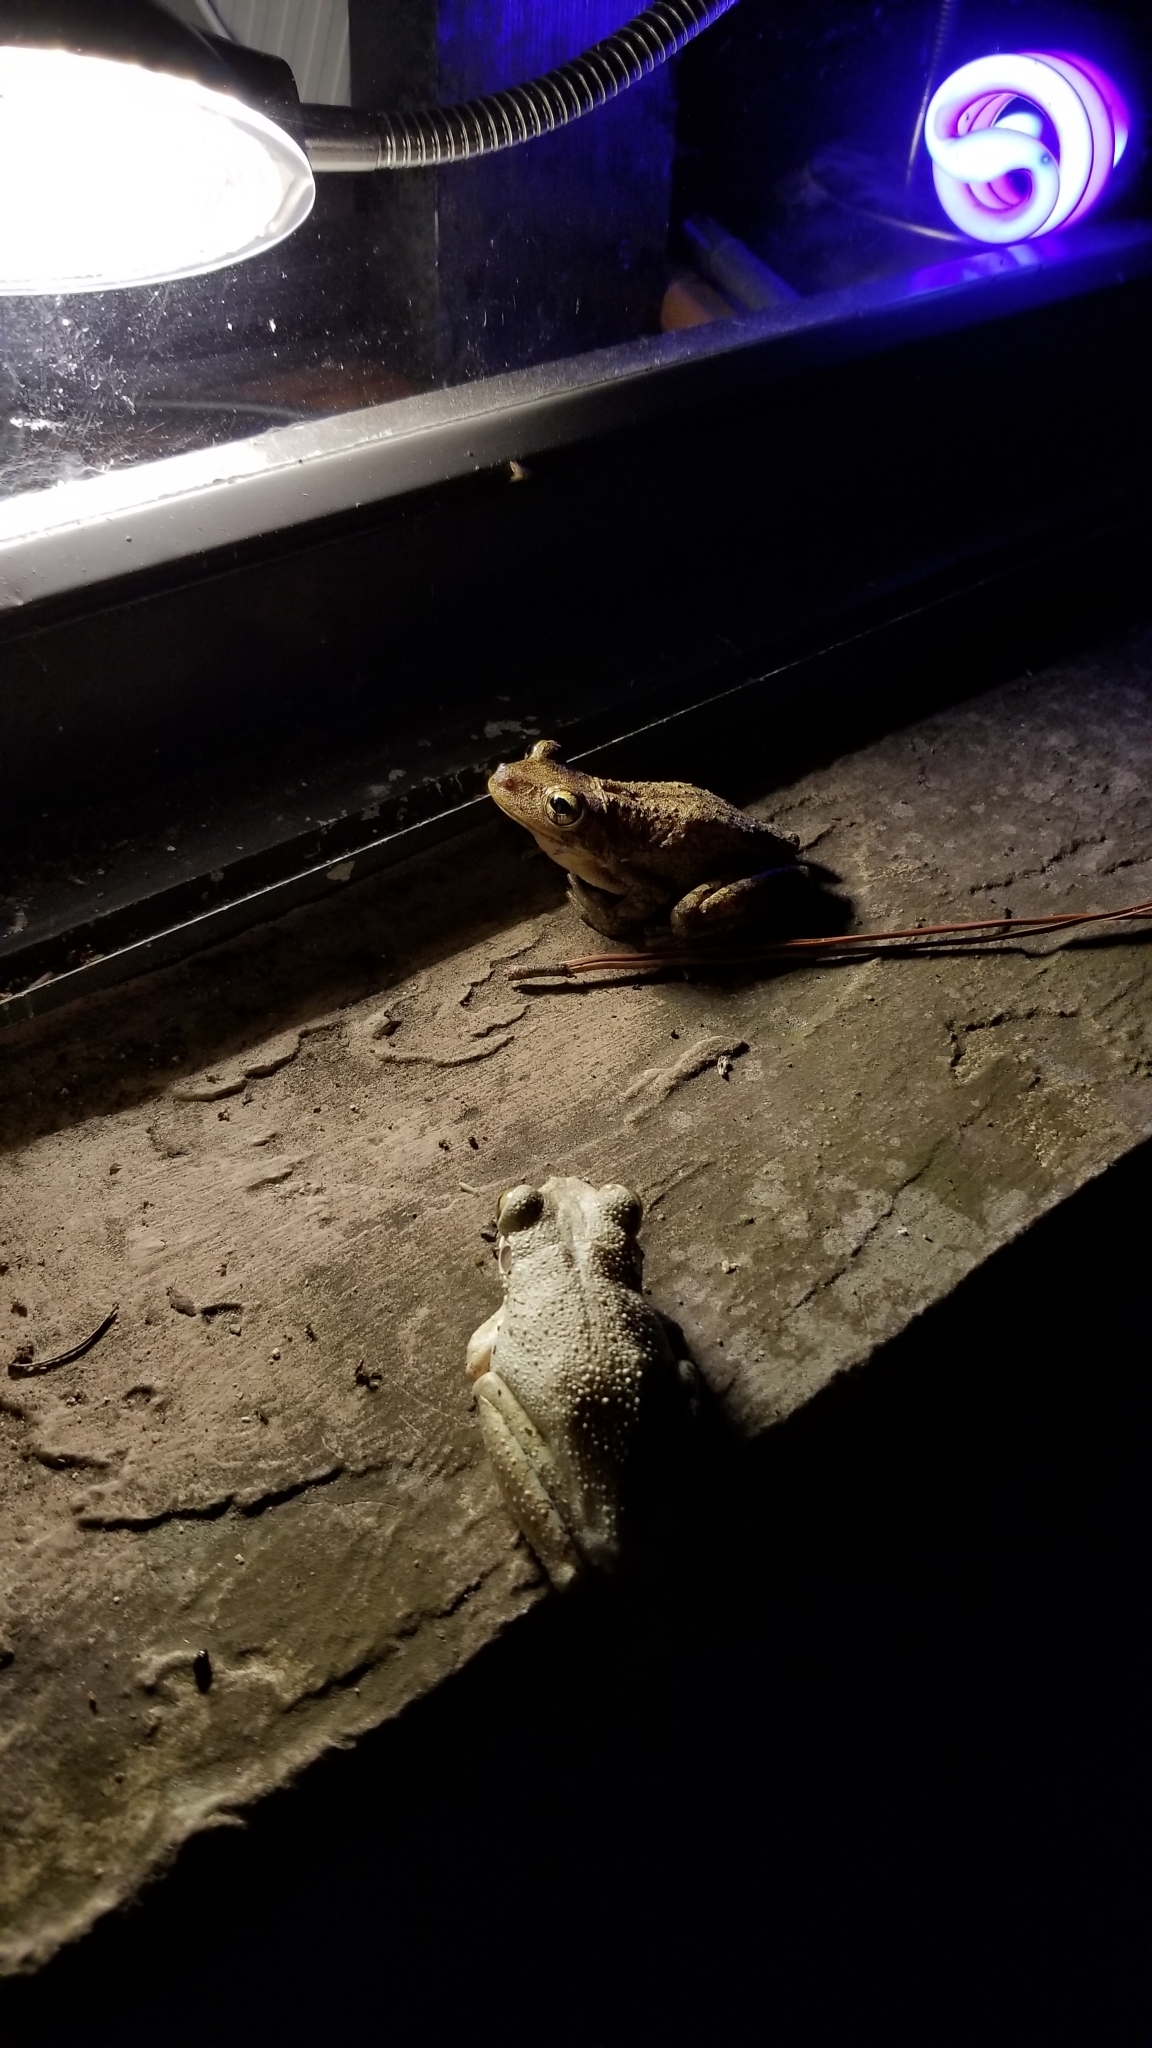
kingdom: Animalia
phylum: Chordata
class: Amphibia
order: Anura
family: Hylidae
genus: Osteopilus
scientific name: Osteopilus septentrionalis
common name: Cuban treefrog
